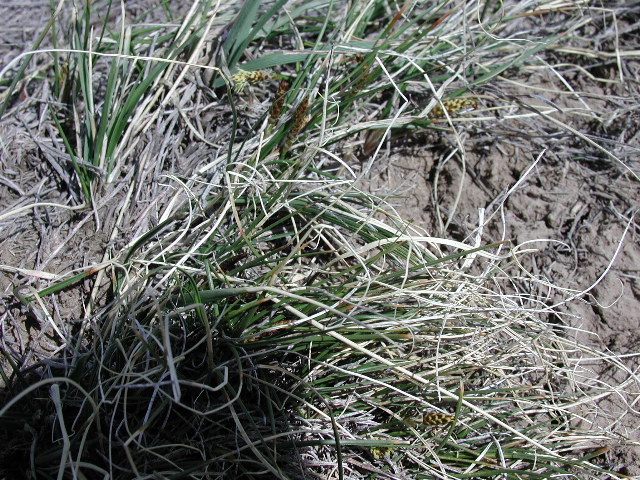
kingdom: Plantae
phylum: Tracheophyta
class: Liliopsida
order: Poales
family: Cyperaceae
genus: Carex
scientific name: Carex filifolia
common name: Threadleaf sedge
